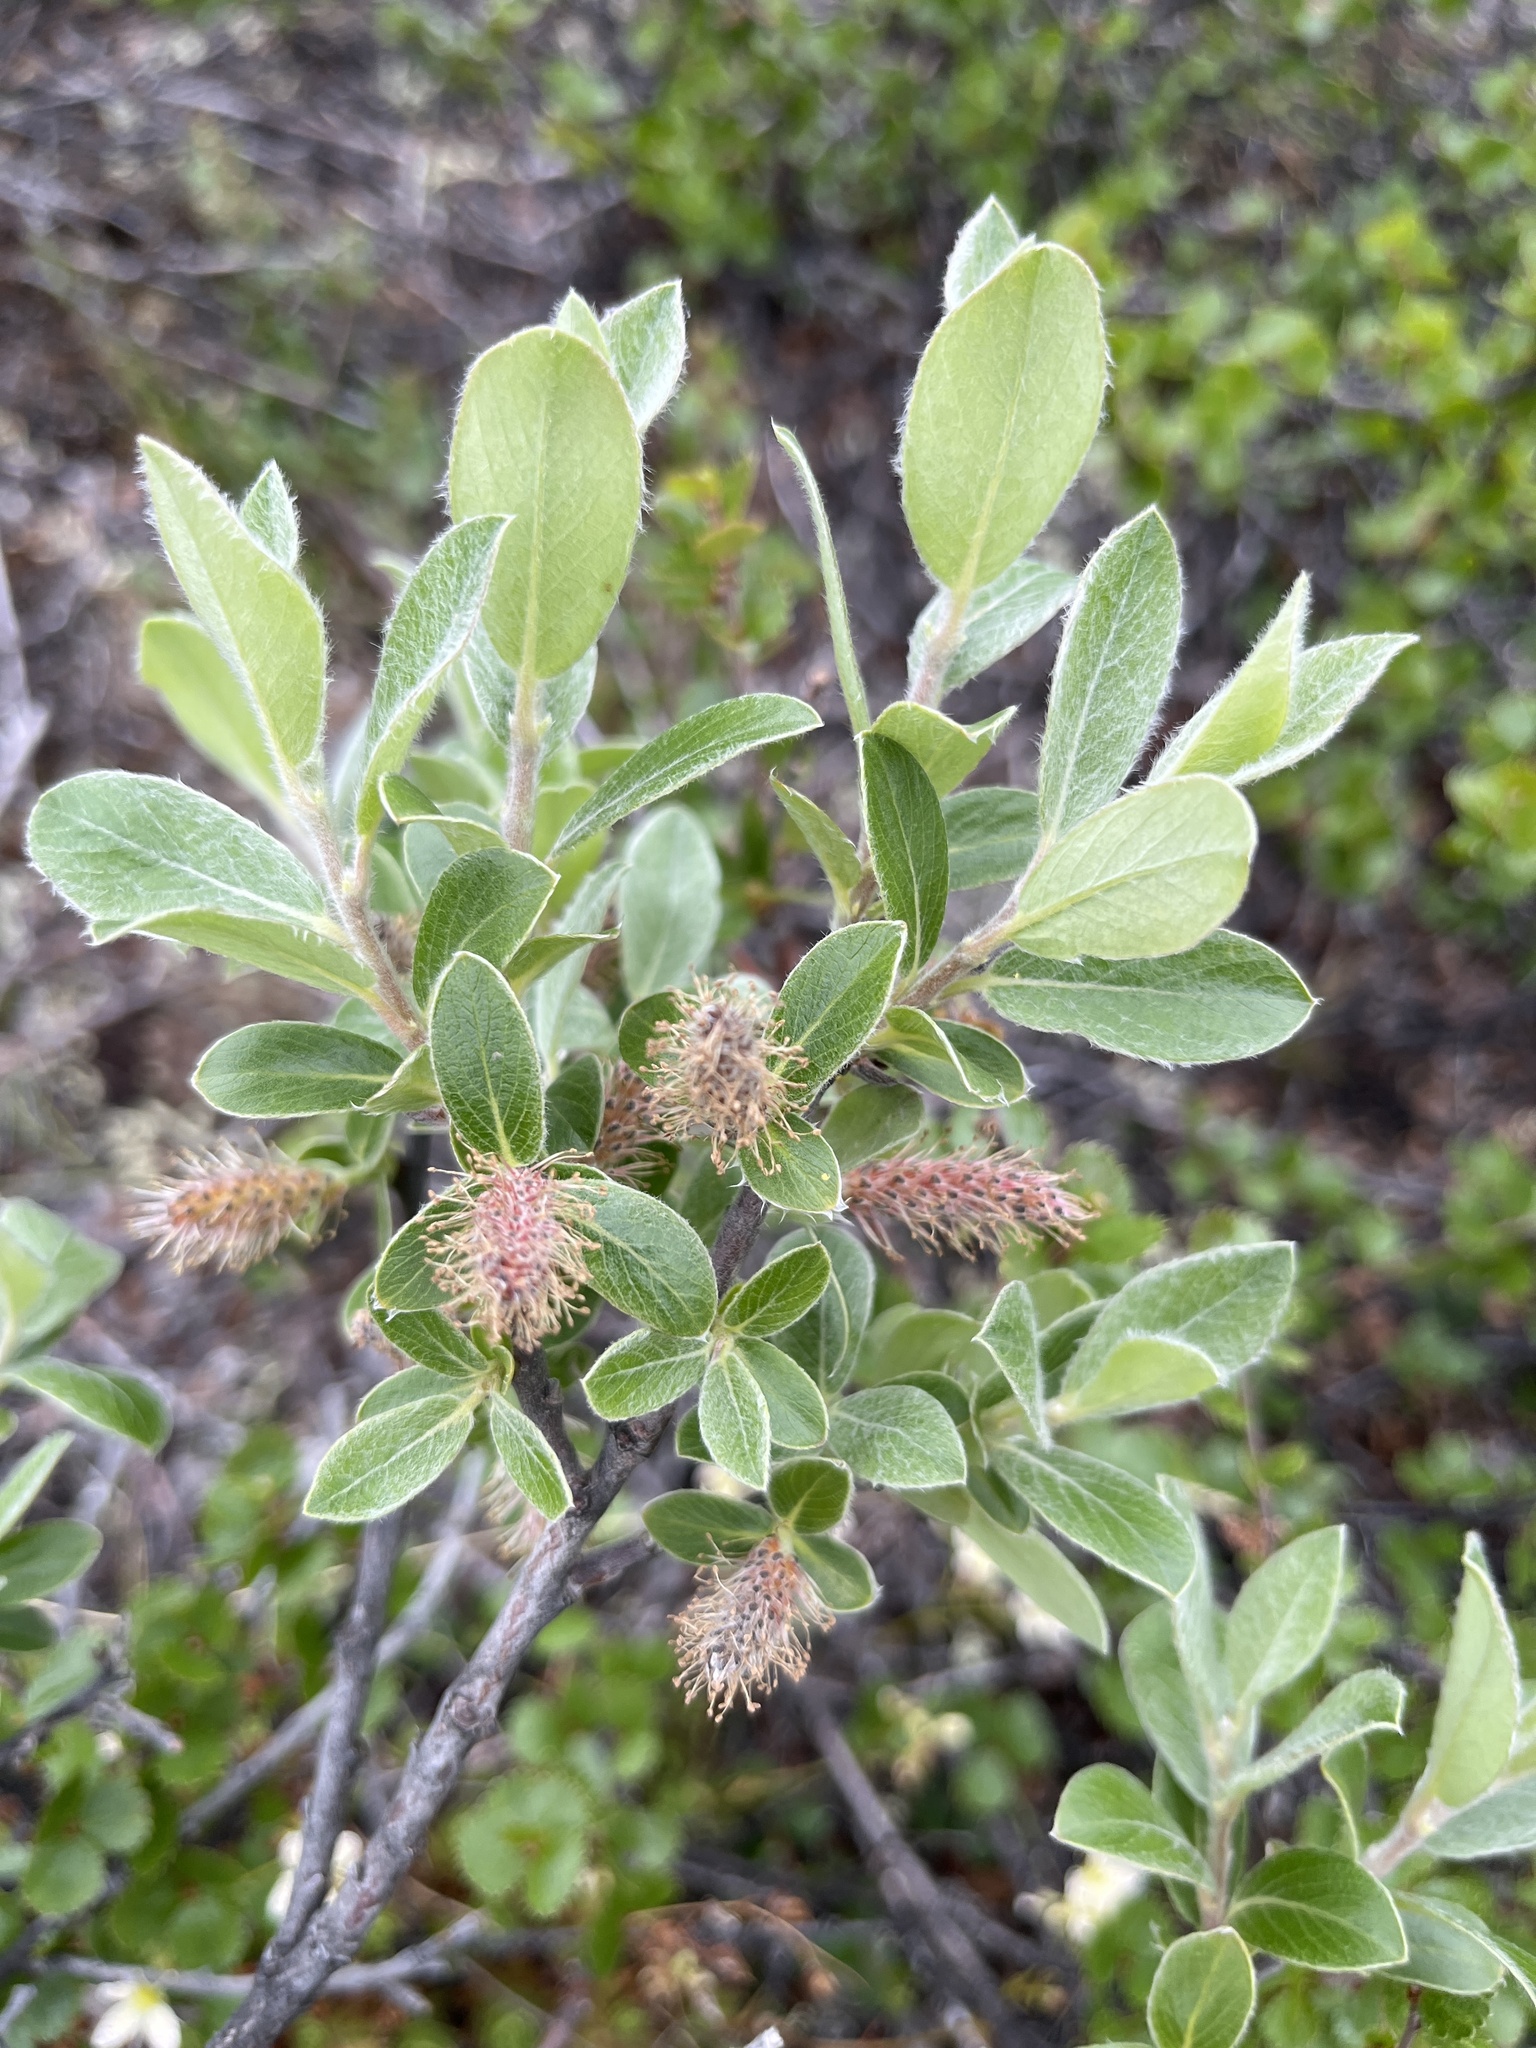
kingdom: Plantae
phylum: Tracheophyta
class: Magnoliopsida
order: Malpighiales
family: Salicaceae
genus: Salix
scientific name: Salix glauca
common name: Glaucous willow
